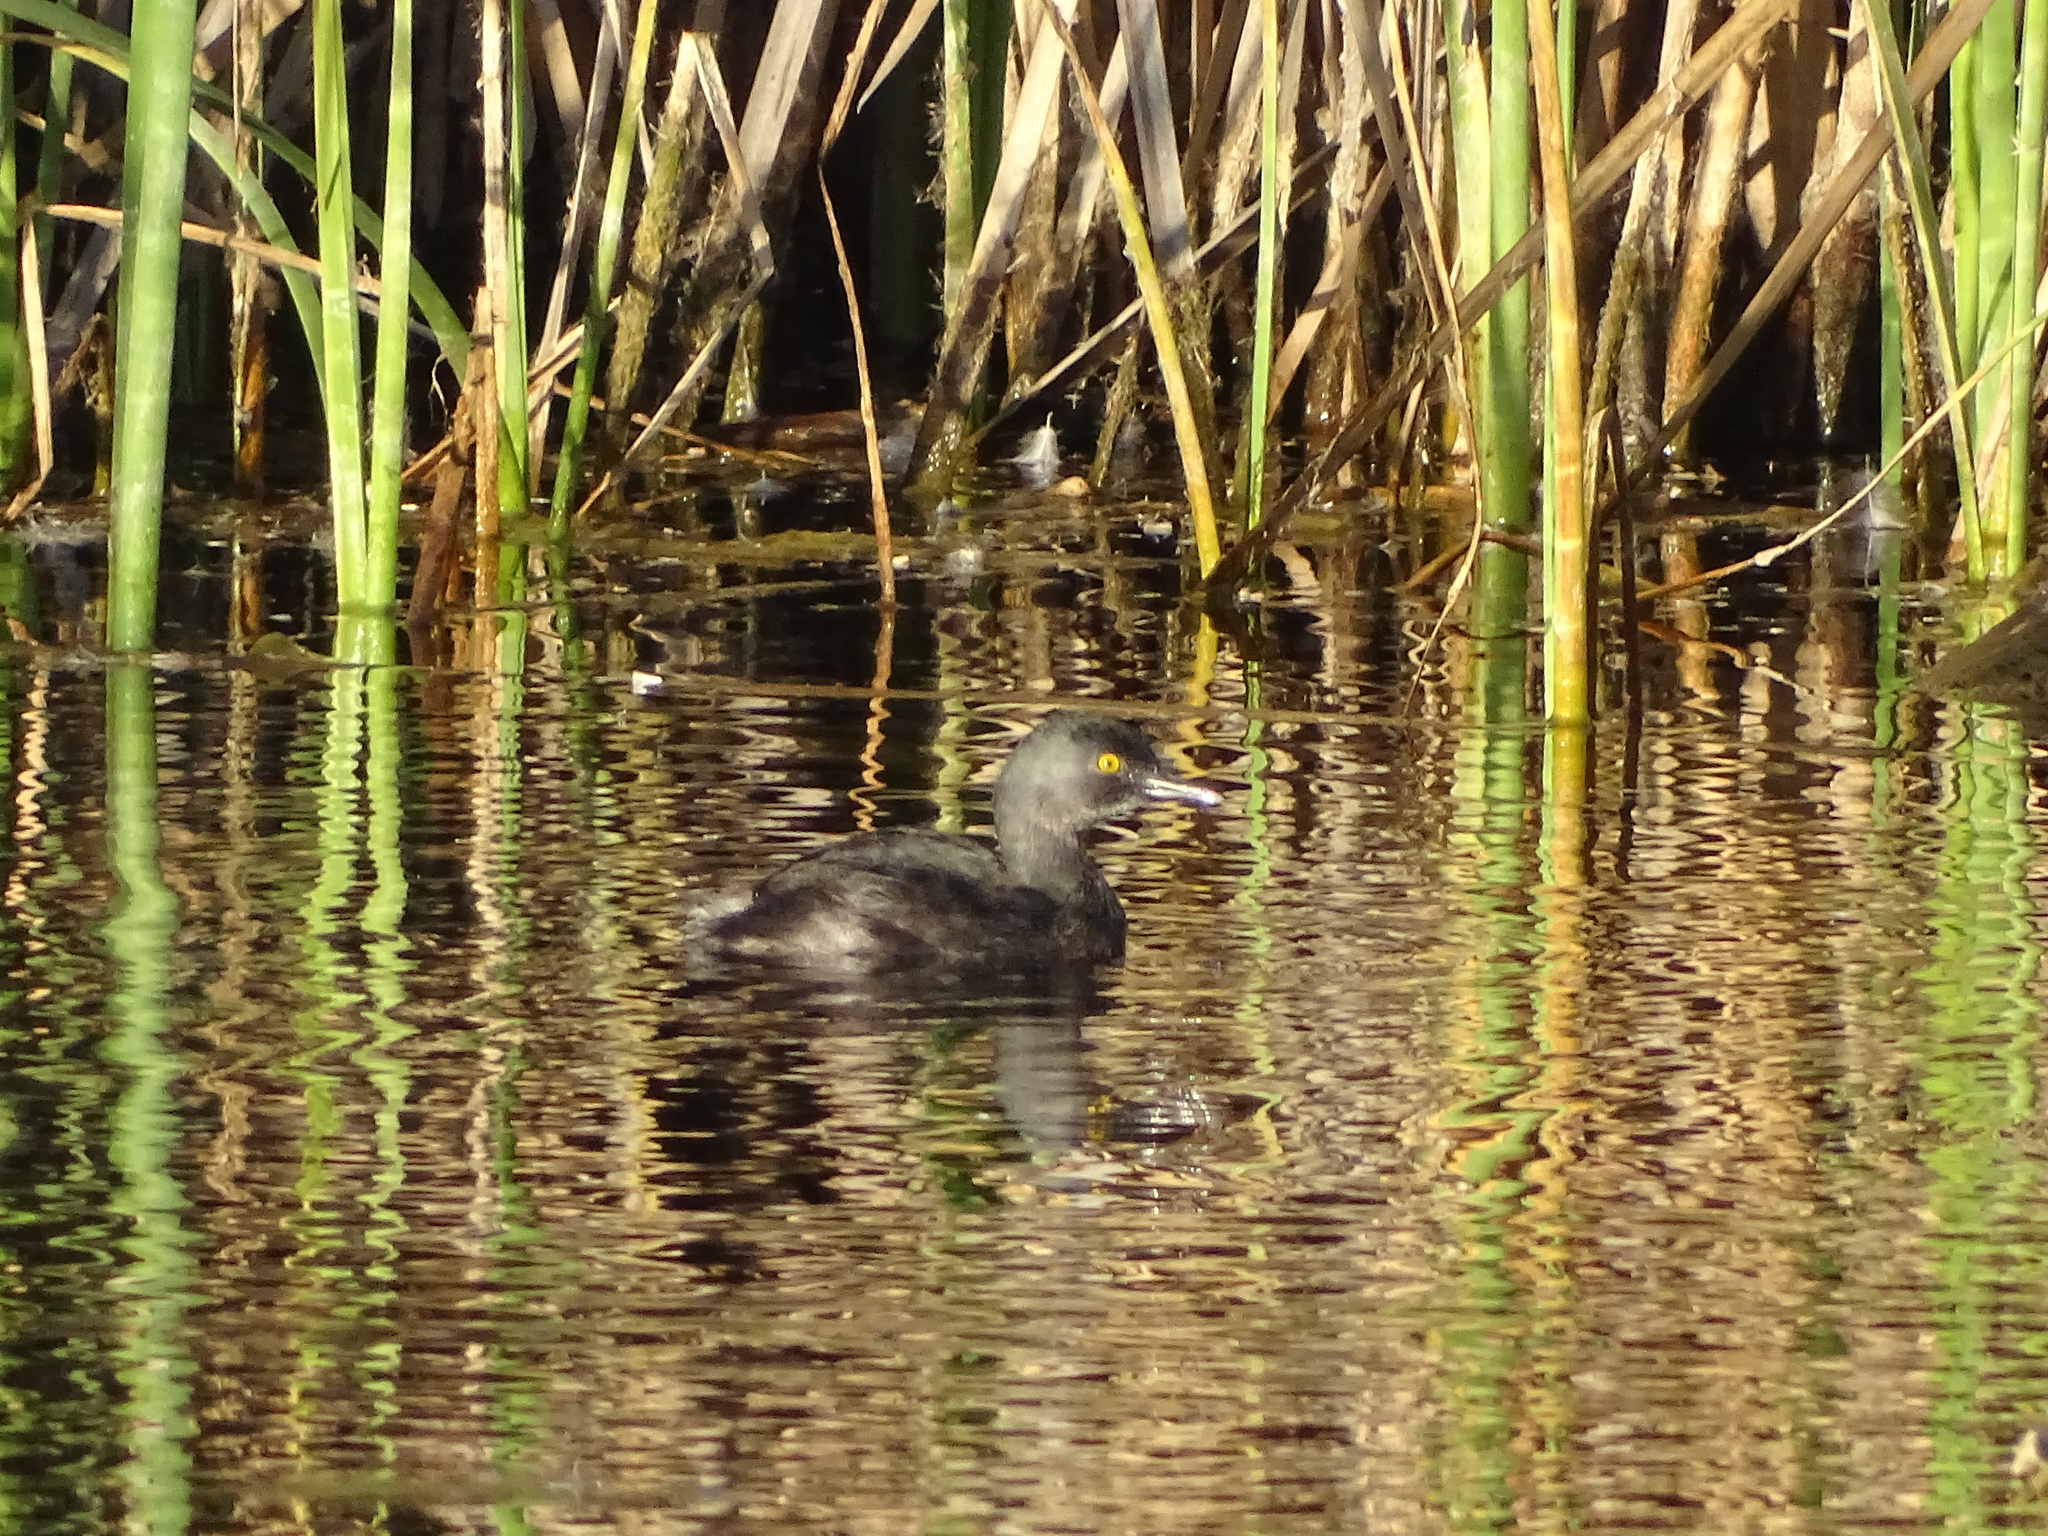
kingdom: Animalia
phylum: Chordata
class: Aves
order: Podicipediformes
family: Podicipedidae
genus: Tachybaptus
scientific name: Tachybaptus dominicus
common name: Least grebe
